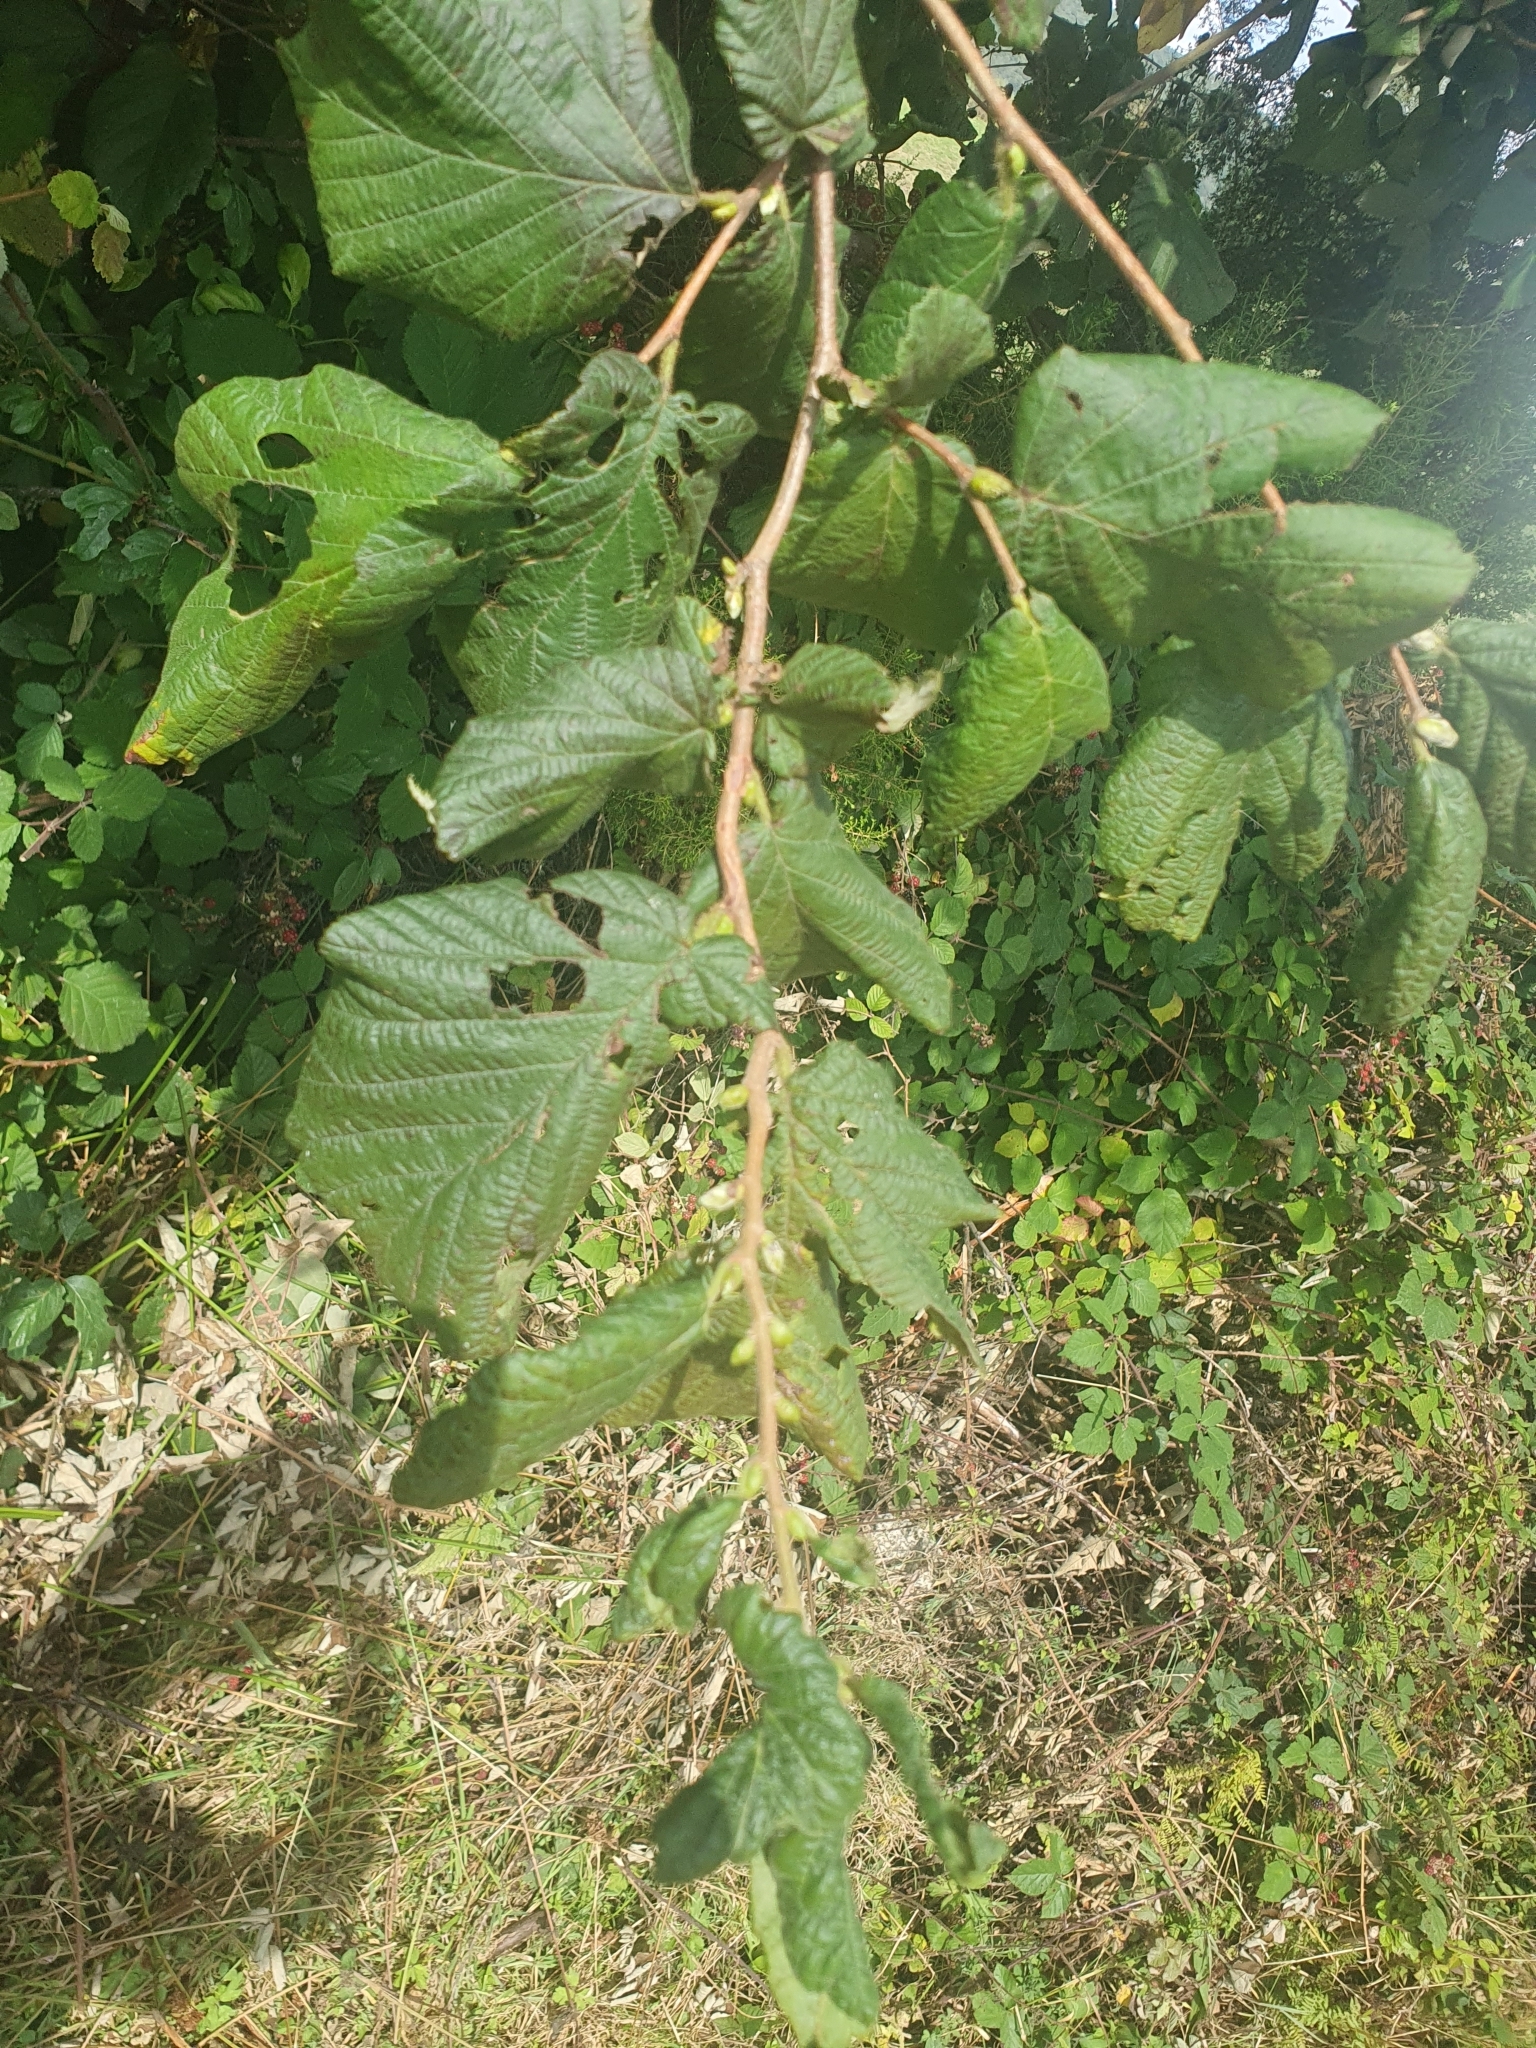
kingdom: Plantae
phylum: Tracheophyta
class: Magnoliopsida
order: Fagales
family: Betulaceae
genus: Corylus
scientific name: Corylus avellana
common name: European hazel
